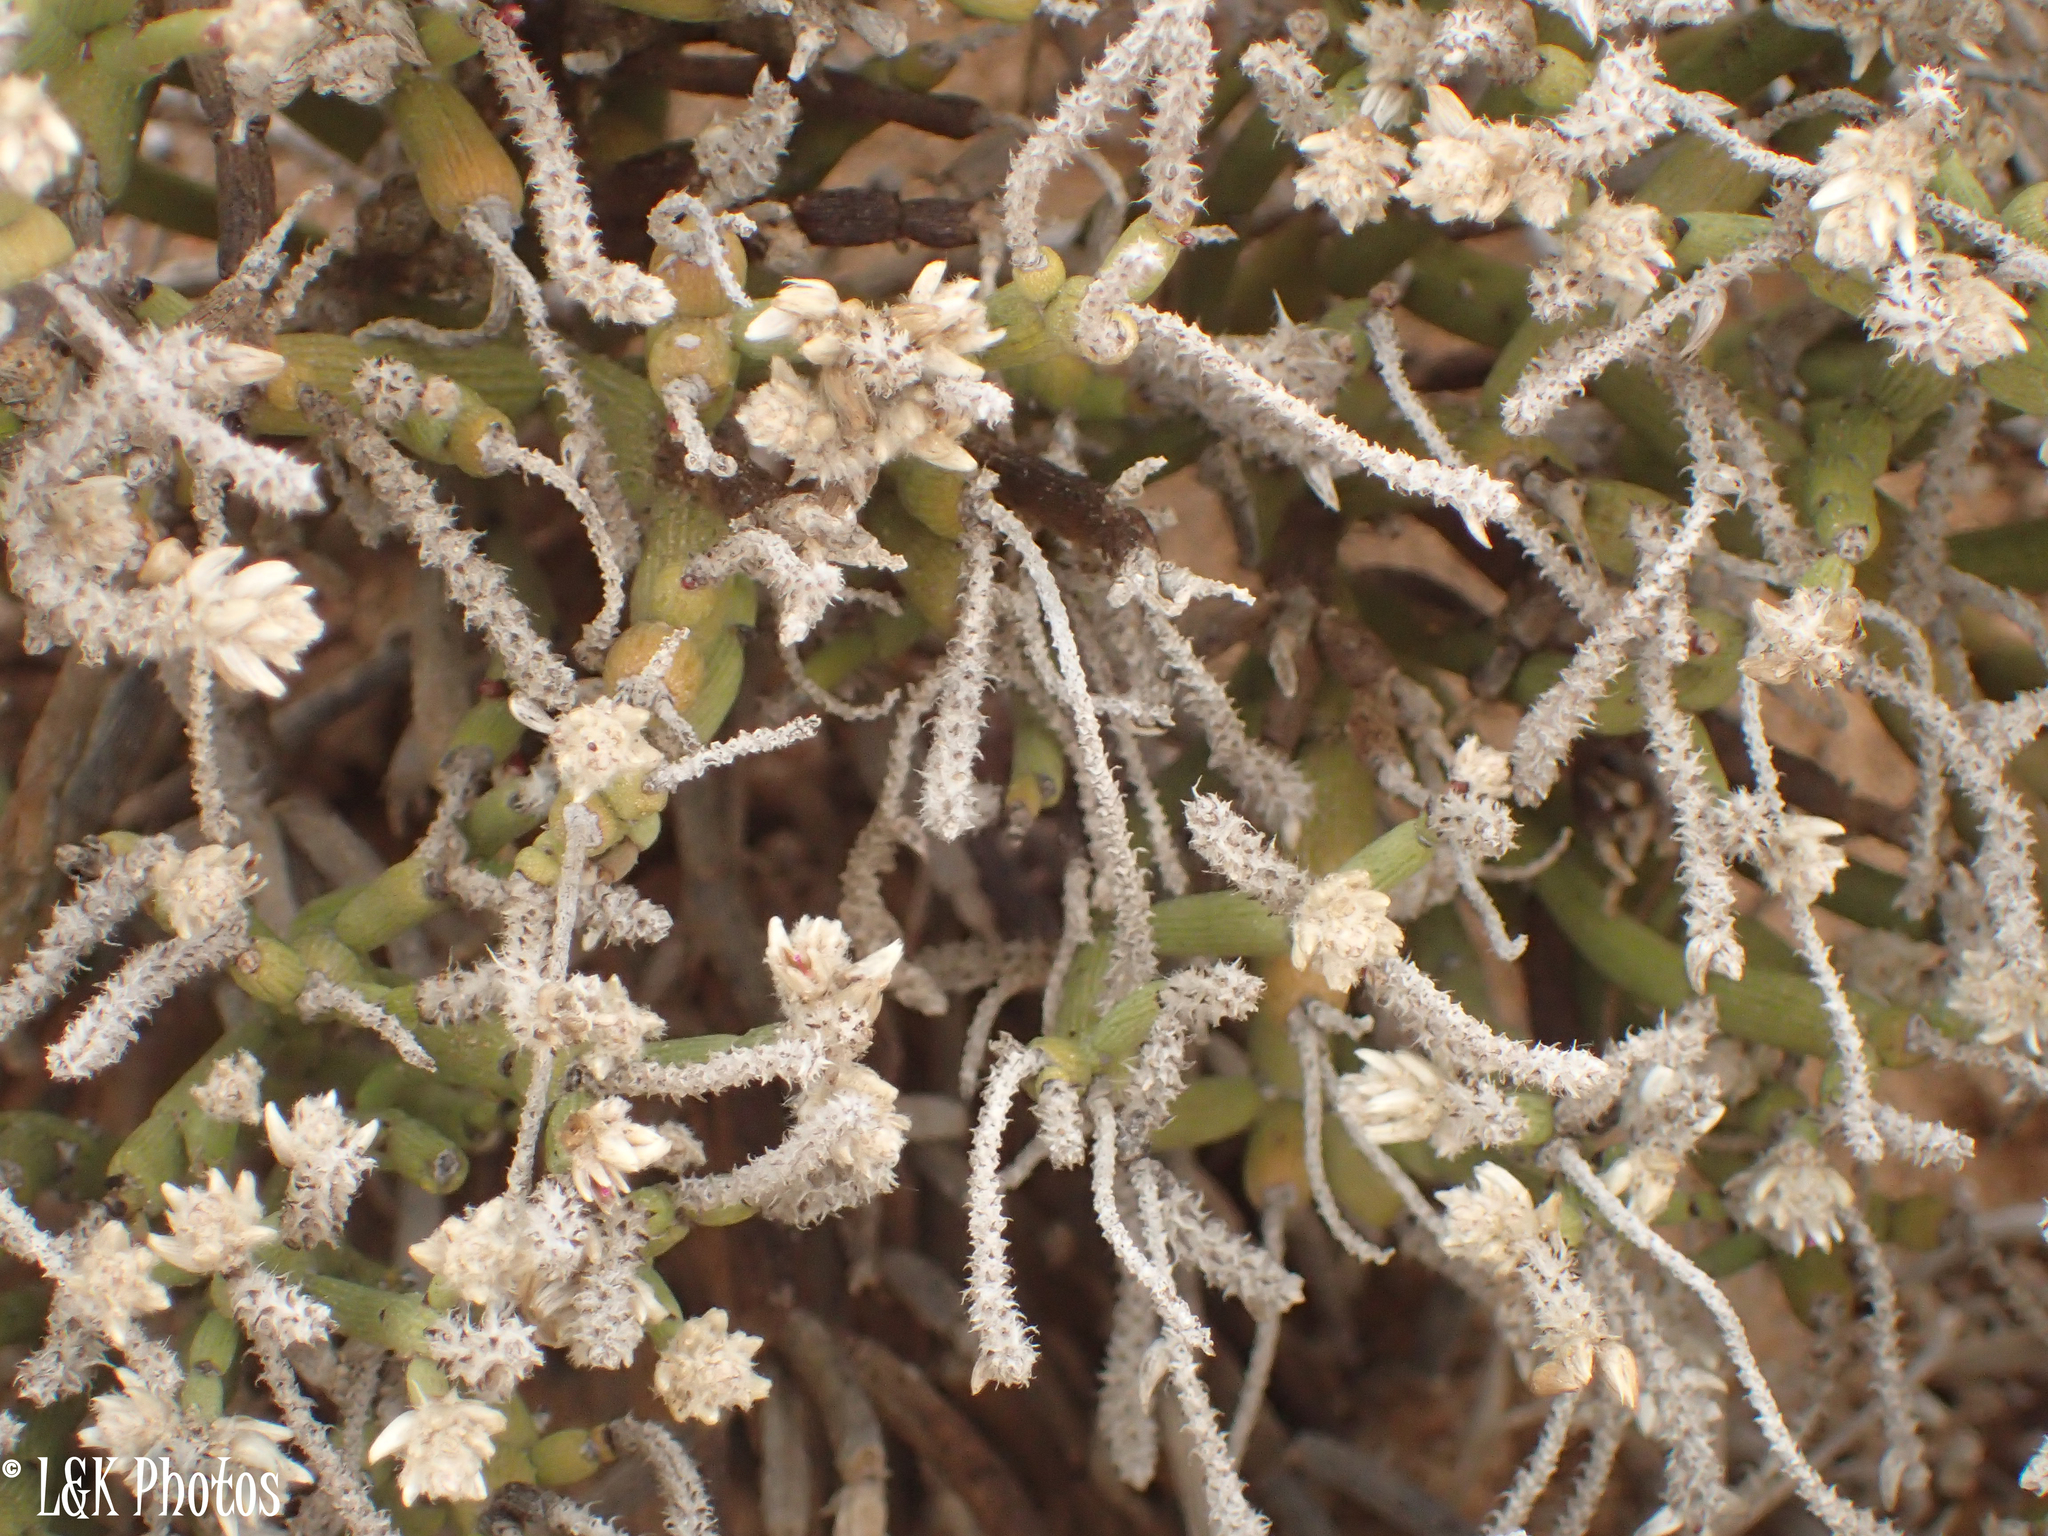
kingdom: Plantae
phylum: Tracheophyta
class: Magnoliopsida
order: Caryophyllales
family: Amaranthaceae
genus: Arthraerva
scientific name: Arthraerva leubnitziae
